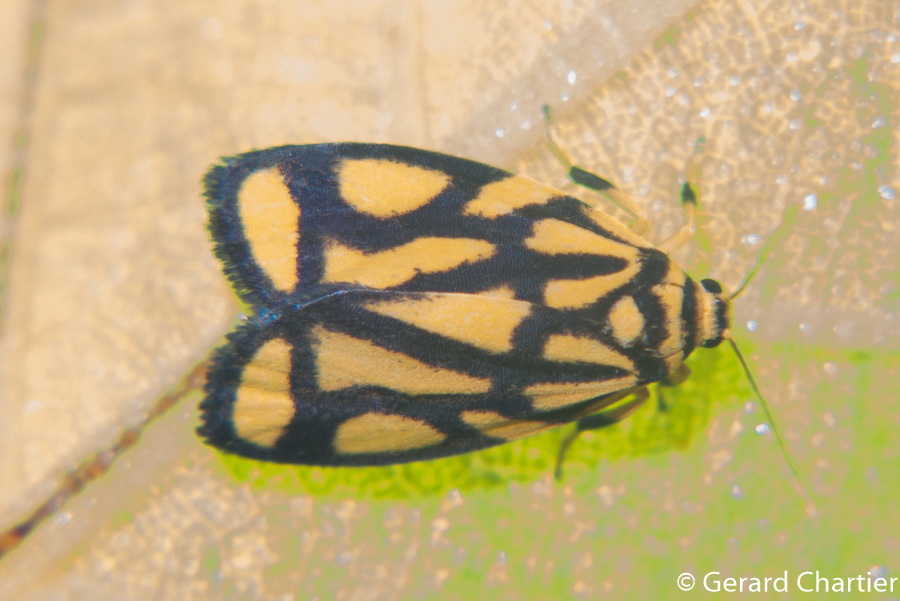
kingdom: Animalia
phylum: Arthropoda
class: Insecta
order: Lepidoptera
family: Erebidae
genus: Darantasia
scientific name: Darantasia cuneiplena
